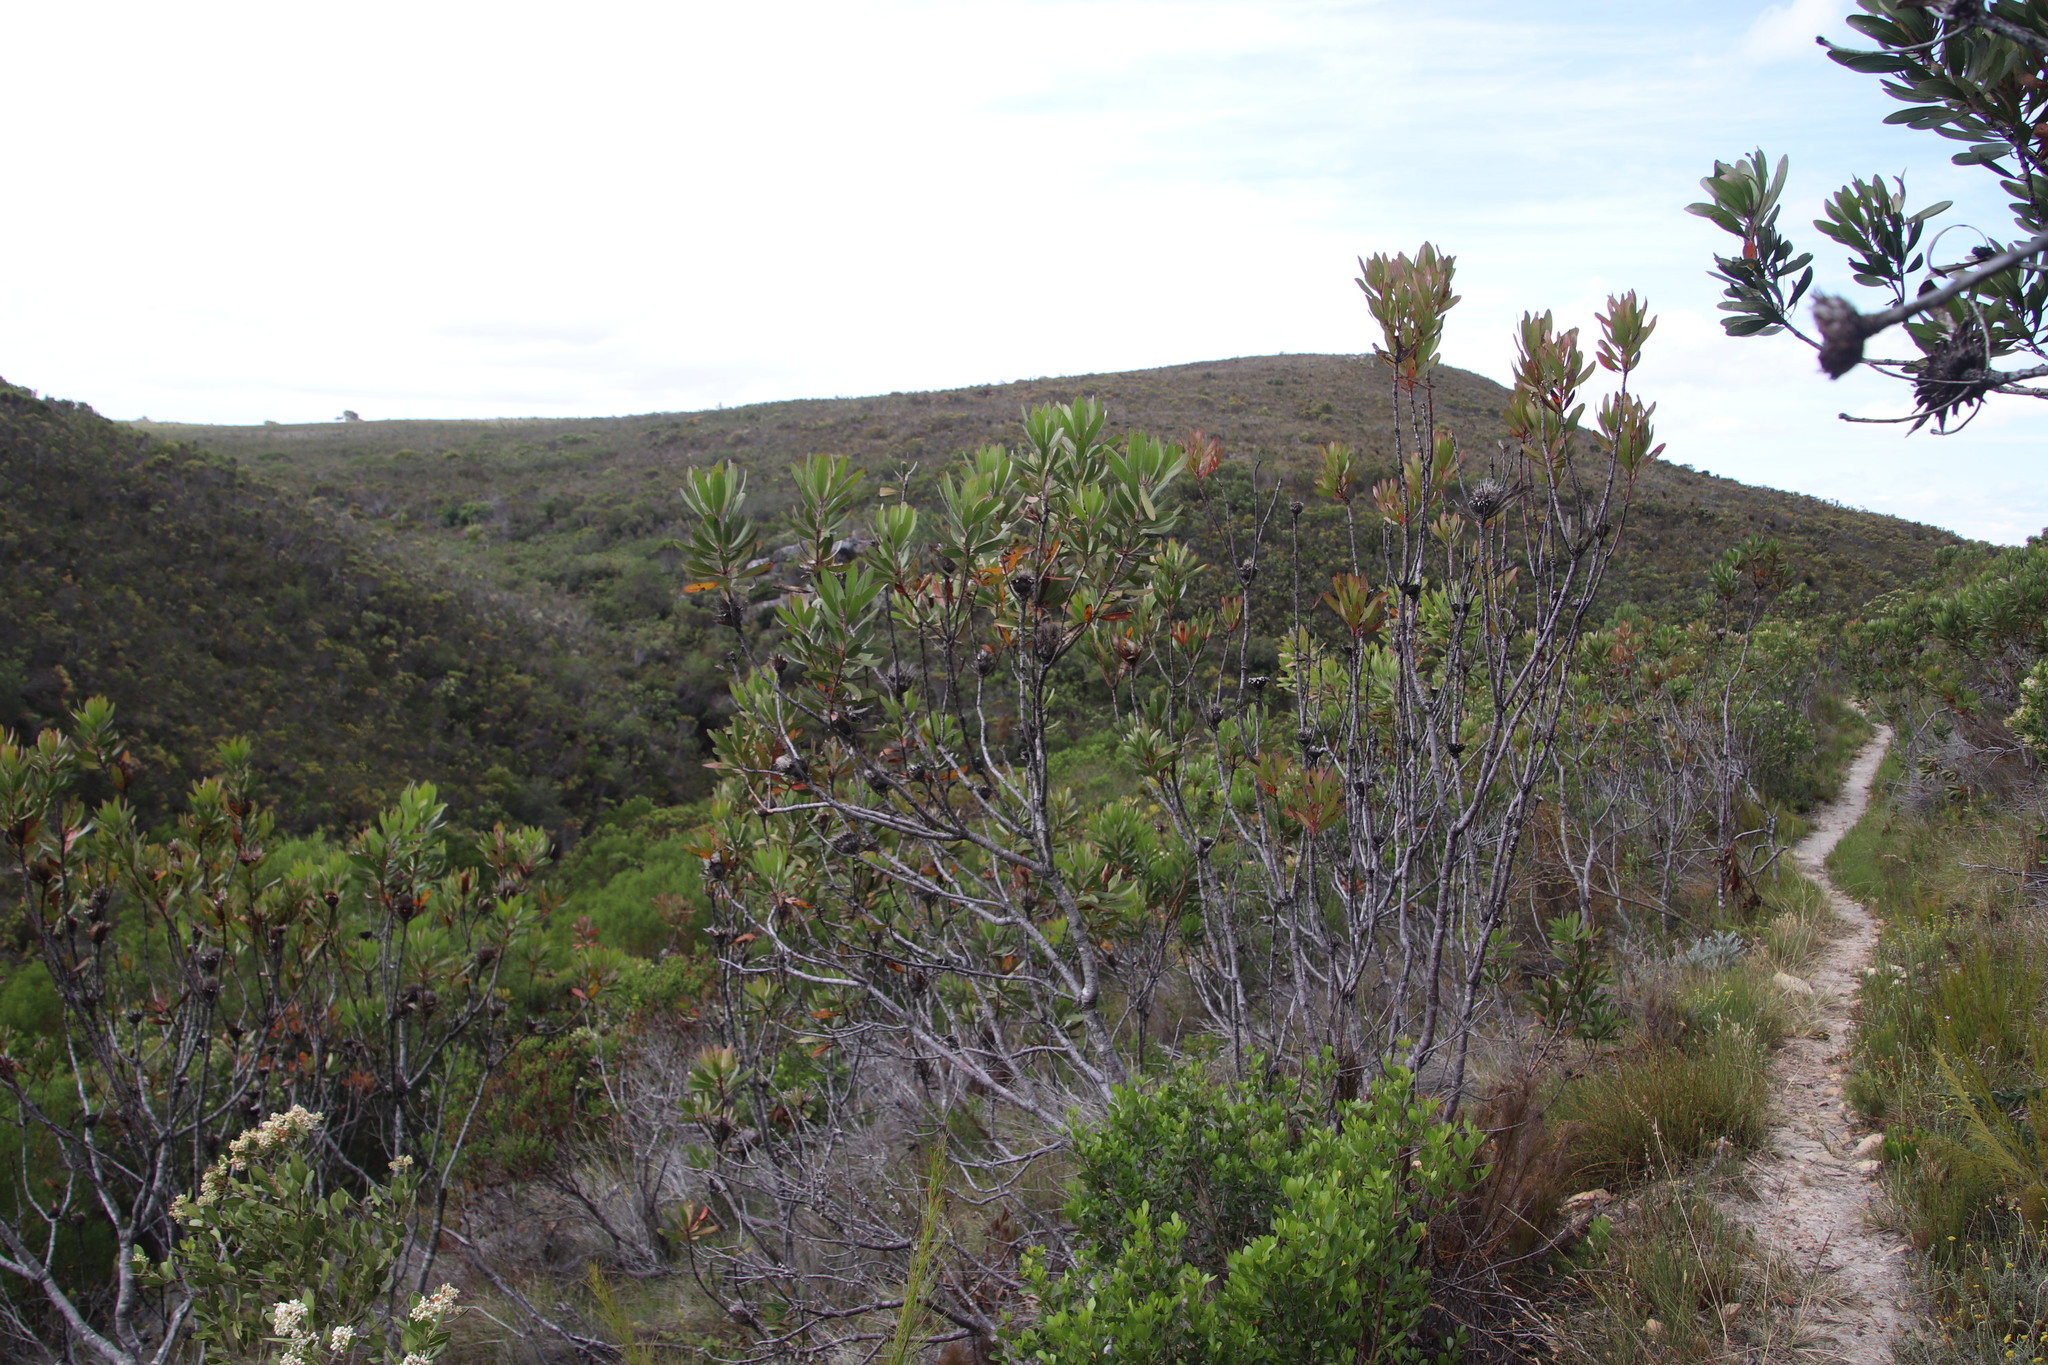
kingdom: Plantae
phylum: Tracheophyta
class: Magnoliopsida
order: Proteales
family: Proteaceae
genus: Protea
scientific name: Protea obtusifolia
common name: Bredasdorp sugarbush
